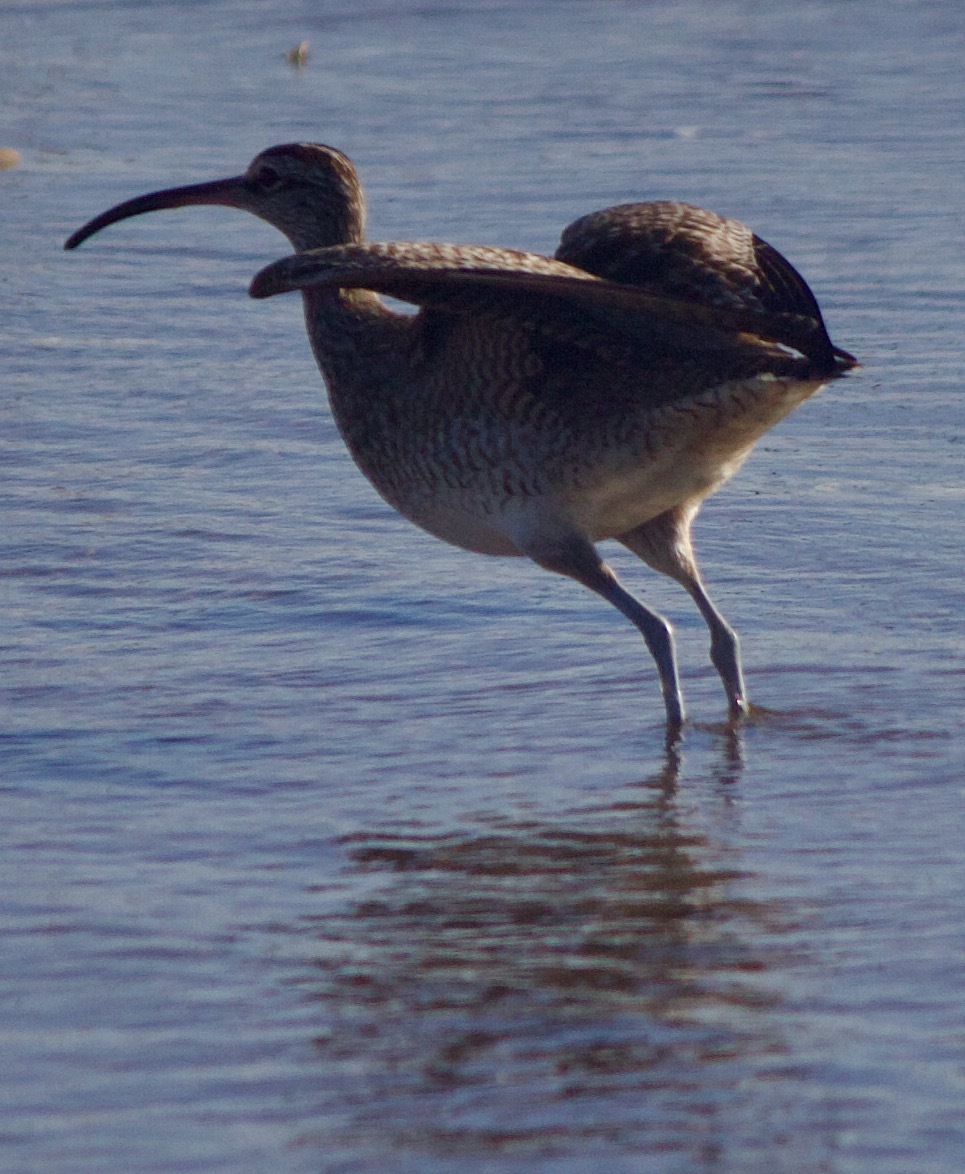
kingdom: Animalia
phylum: Chordata
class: Aves
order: Charadriiformes
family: Scolopacidae
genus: Numenius
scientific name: Numenius phaeopus
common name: Whimbrel
